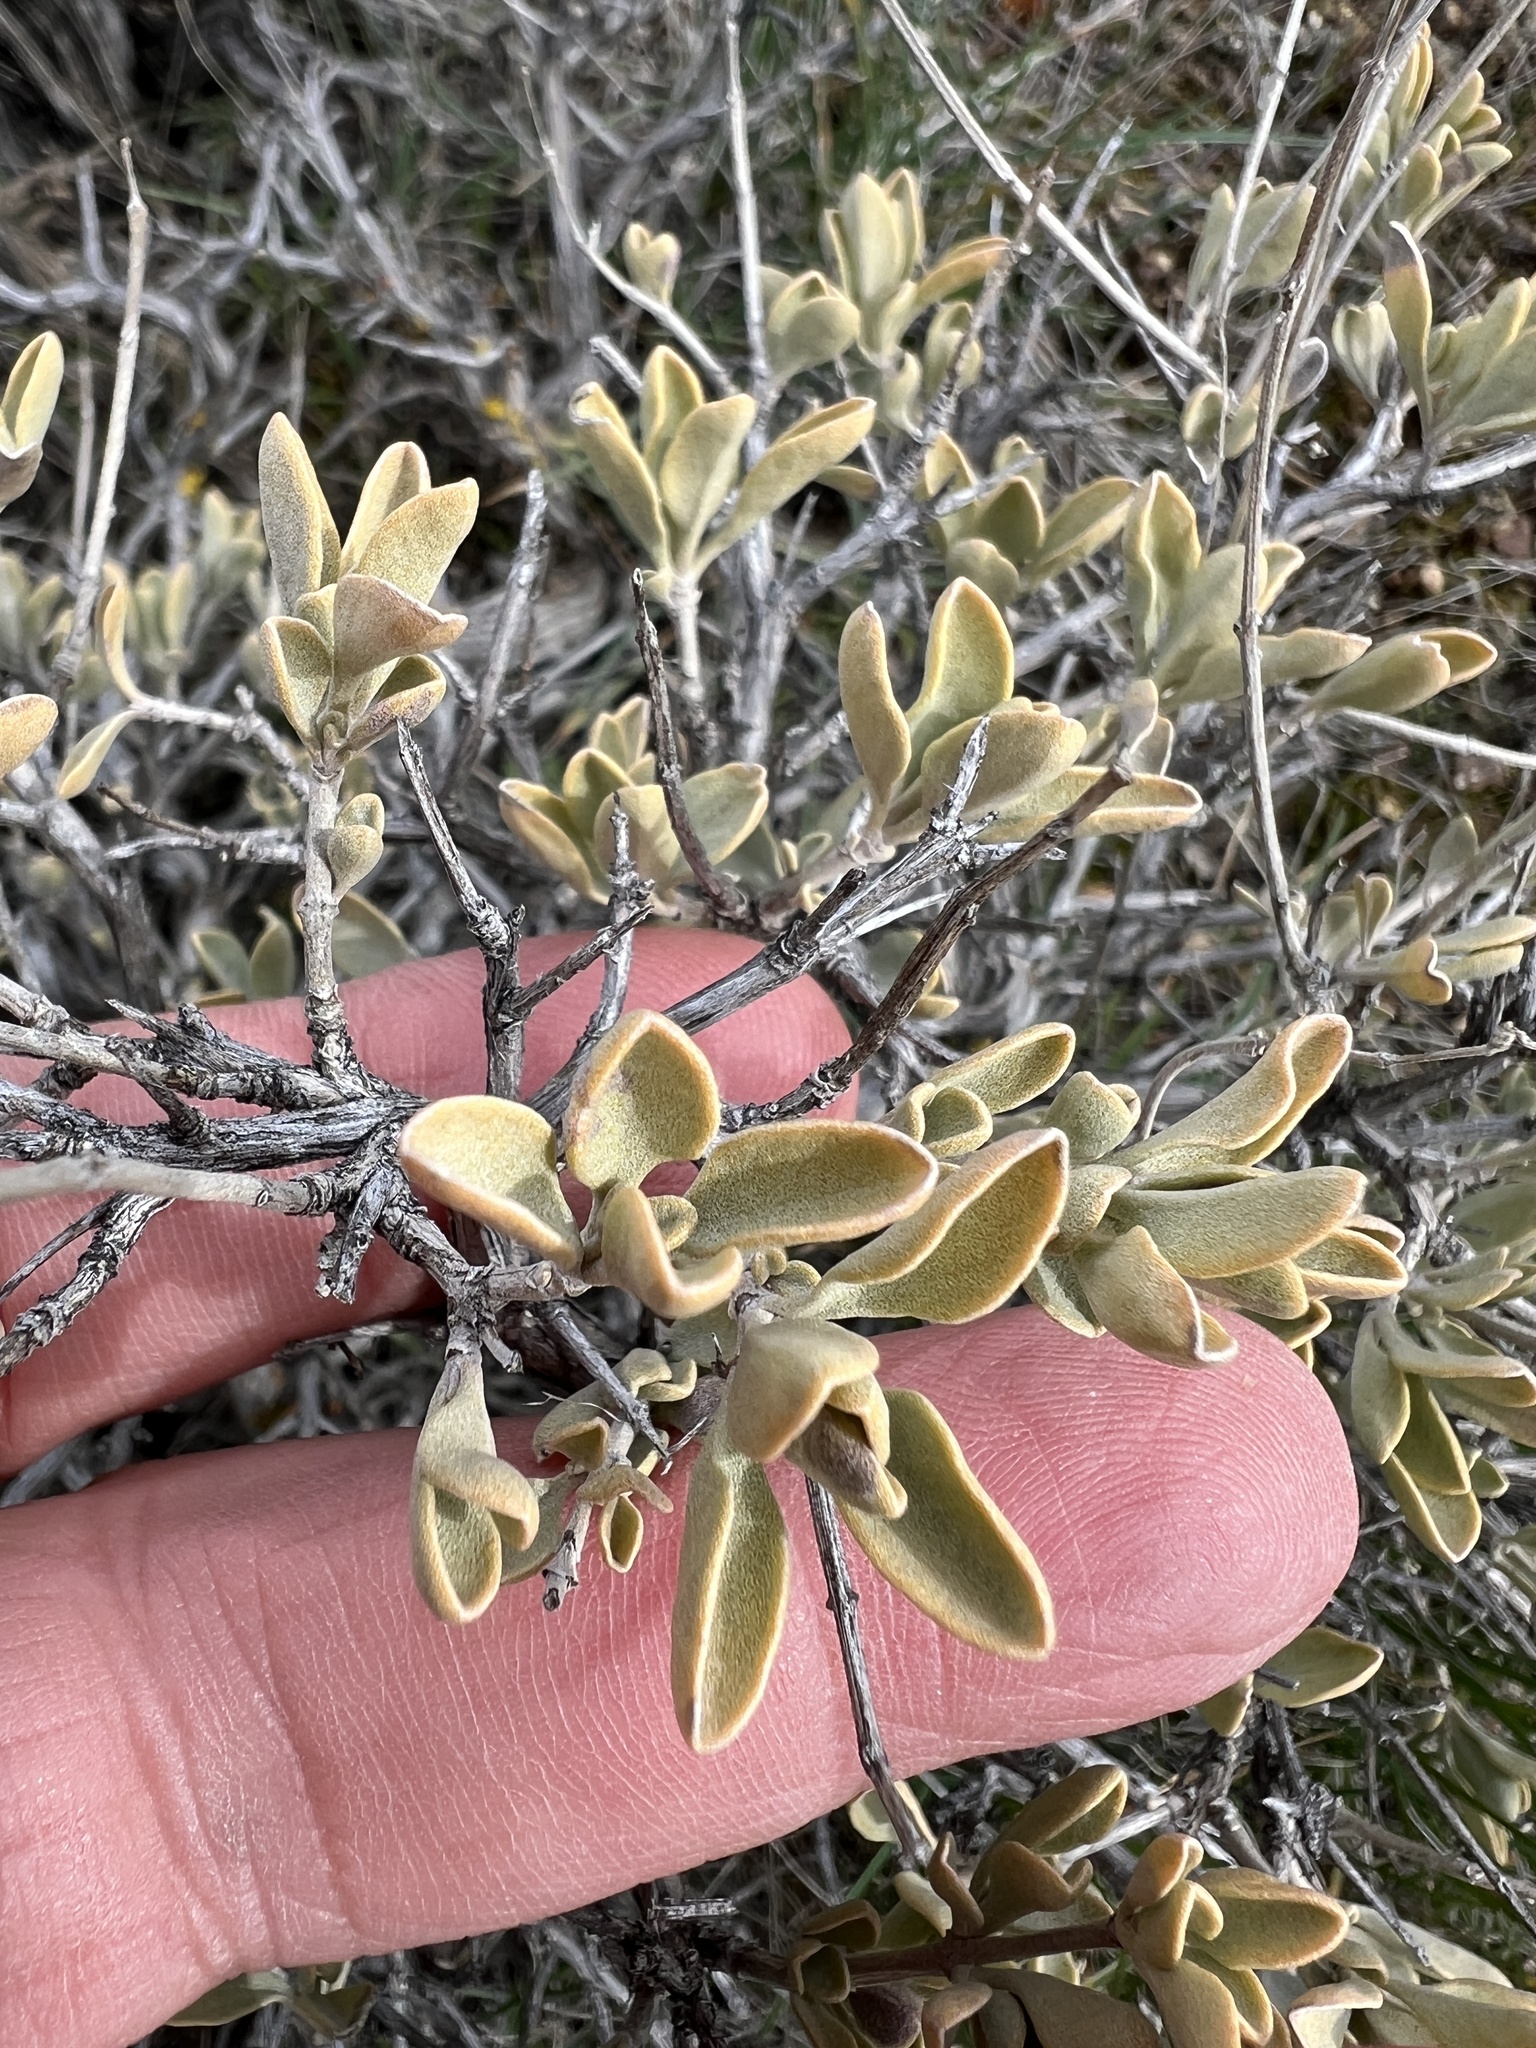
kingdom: Plantae
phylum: Tracheophyta
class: Magnoliopsida
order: Lamiales
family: Lamiaceae
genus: Salvia
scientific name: Salvia dorrii
